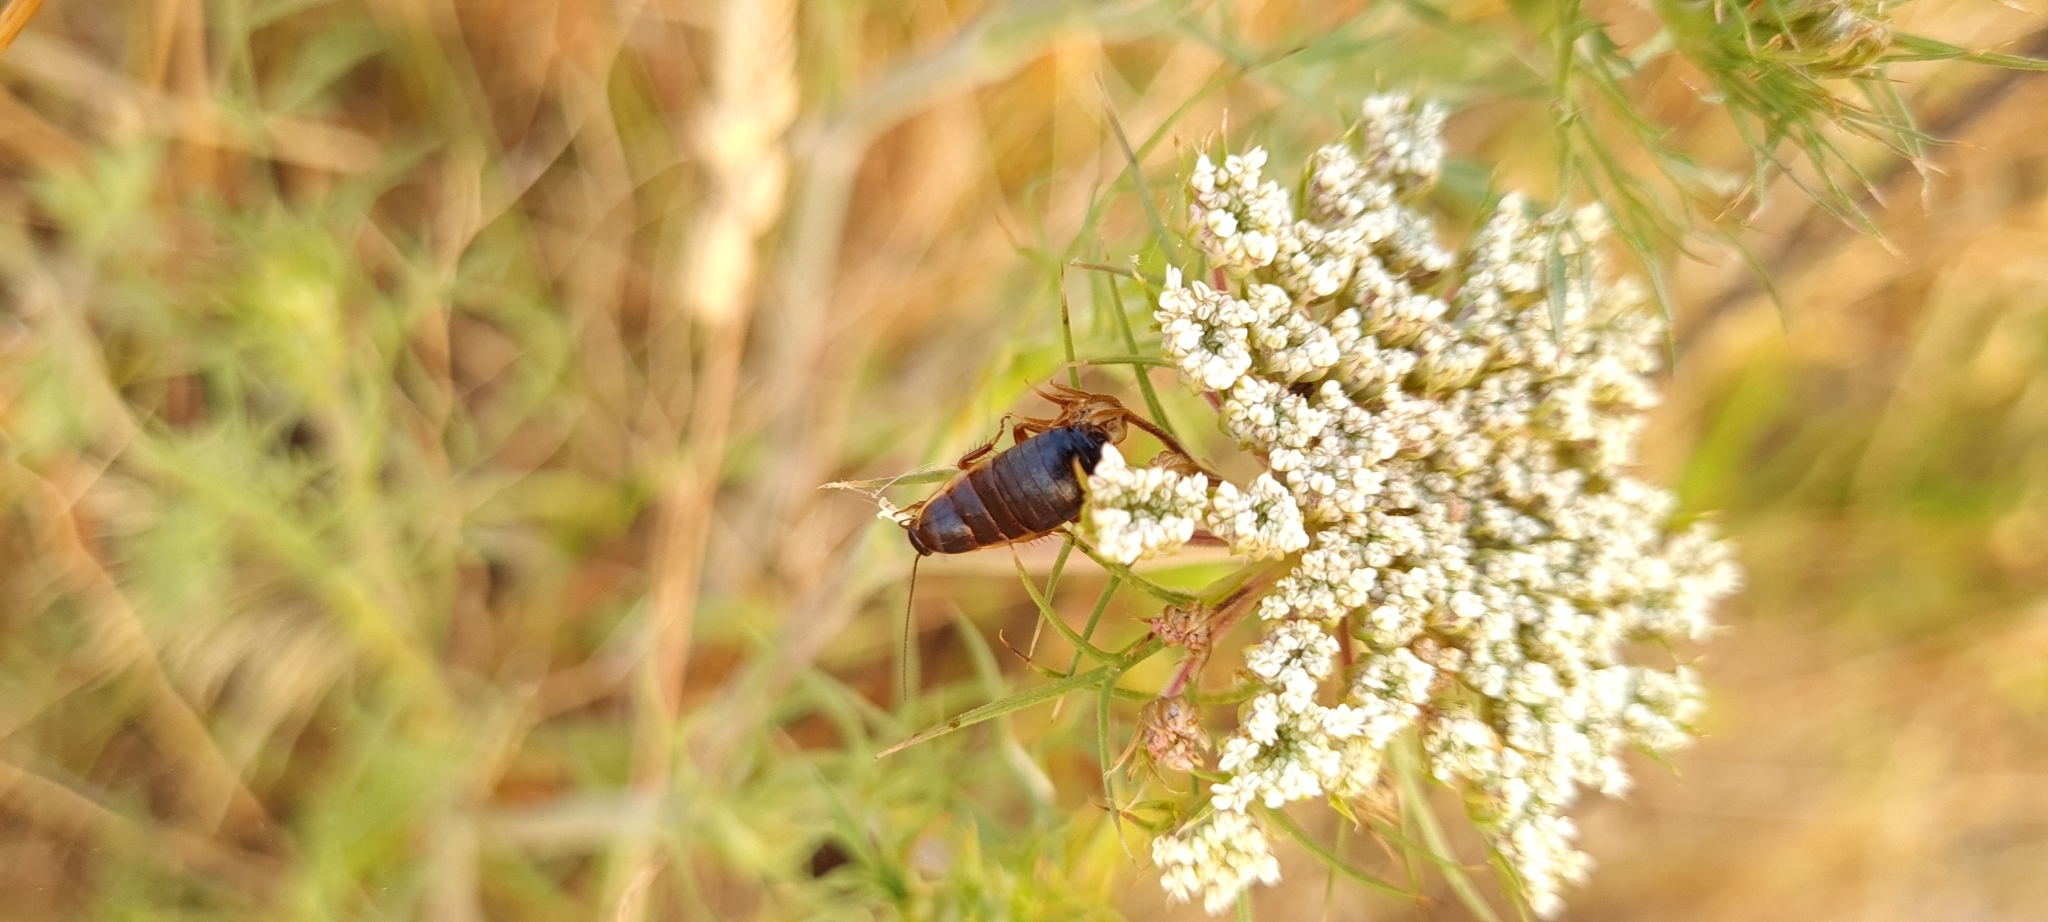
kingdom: Animalia
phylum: Arthropoda
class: Insecta
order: Blattodea
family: Ectobiidae
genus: Loboptera
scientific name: Loboptera canariensis
